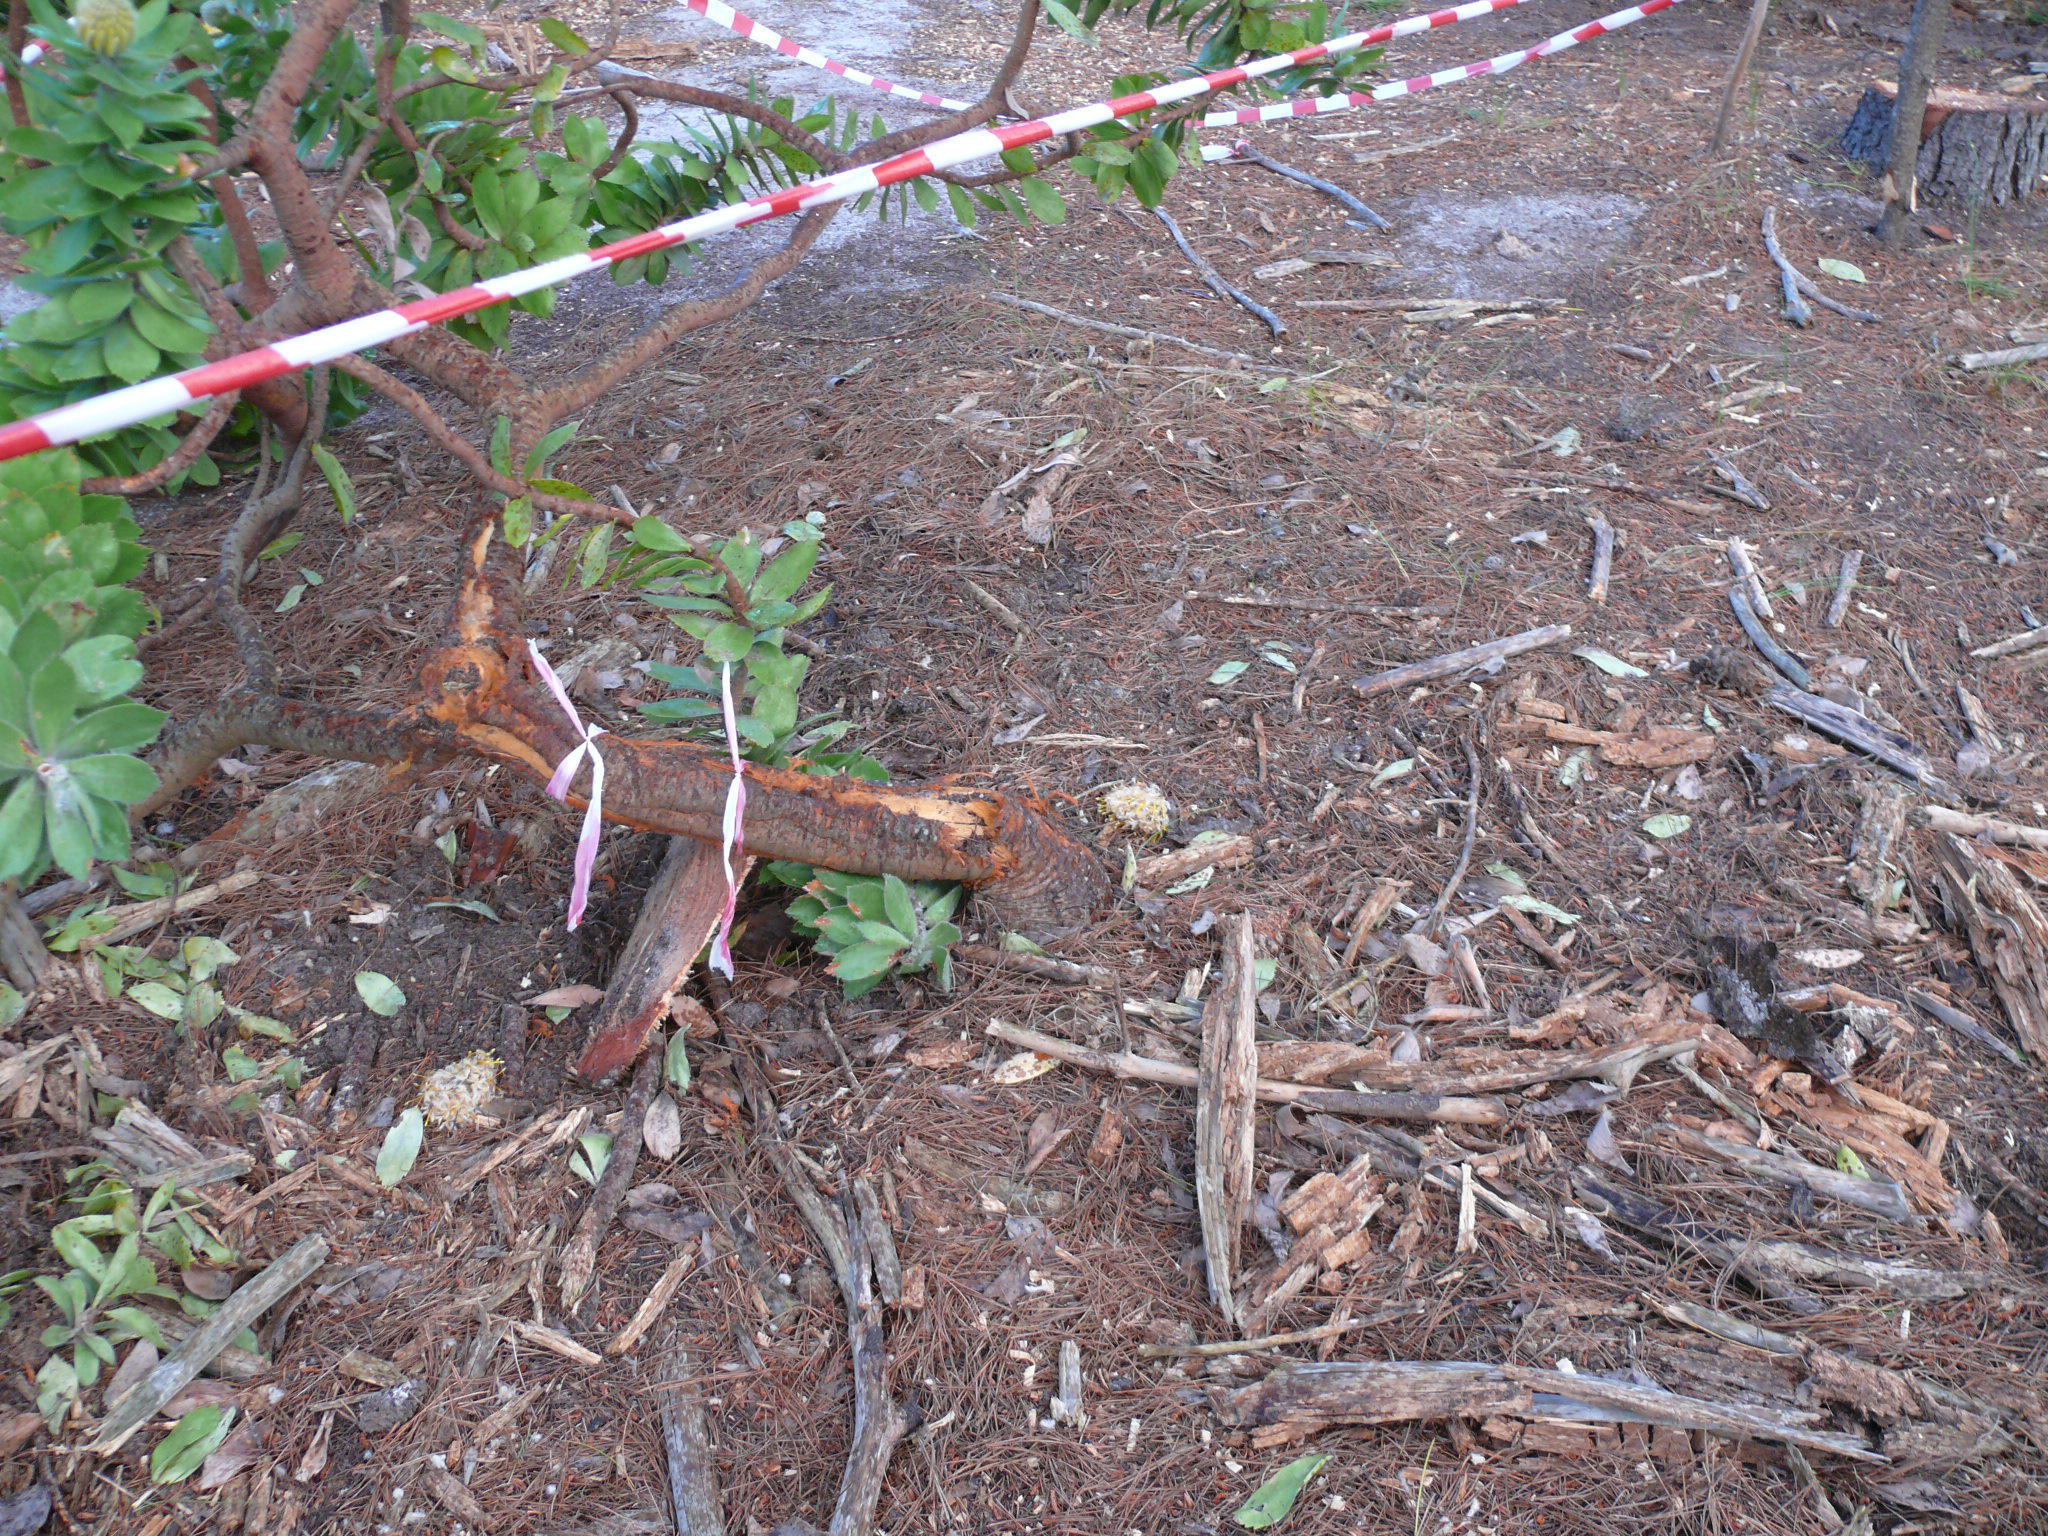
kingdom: Plantae
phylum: Tracheophyta
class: Magnoliopsida
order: Proteales
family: Proteaceae
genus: Leucospermum
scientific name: Leucospermum conocarpodendron
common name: Tree pincushion
